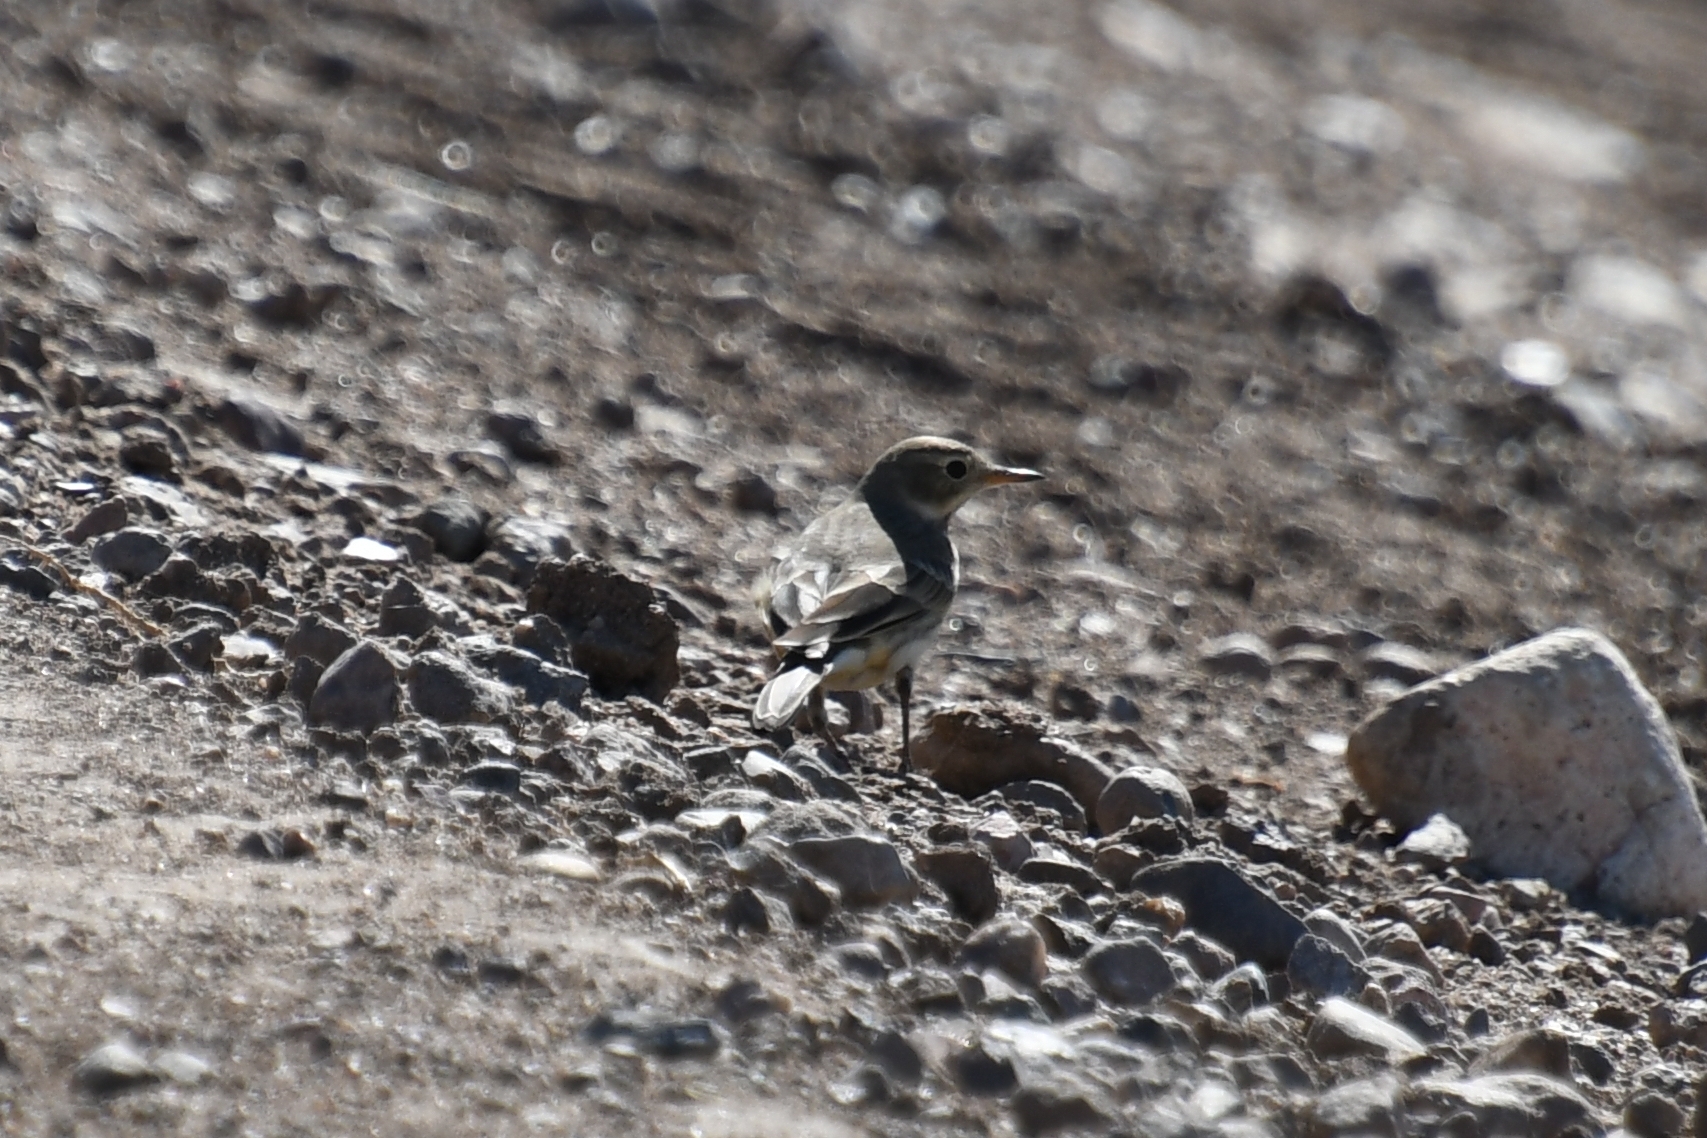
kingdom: Animalia
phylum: Chordata
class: Aves
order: Passeriformes
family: Motacillidae
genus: Anthus
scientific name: Anthus rubescens
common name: Buff-bellied pipit
